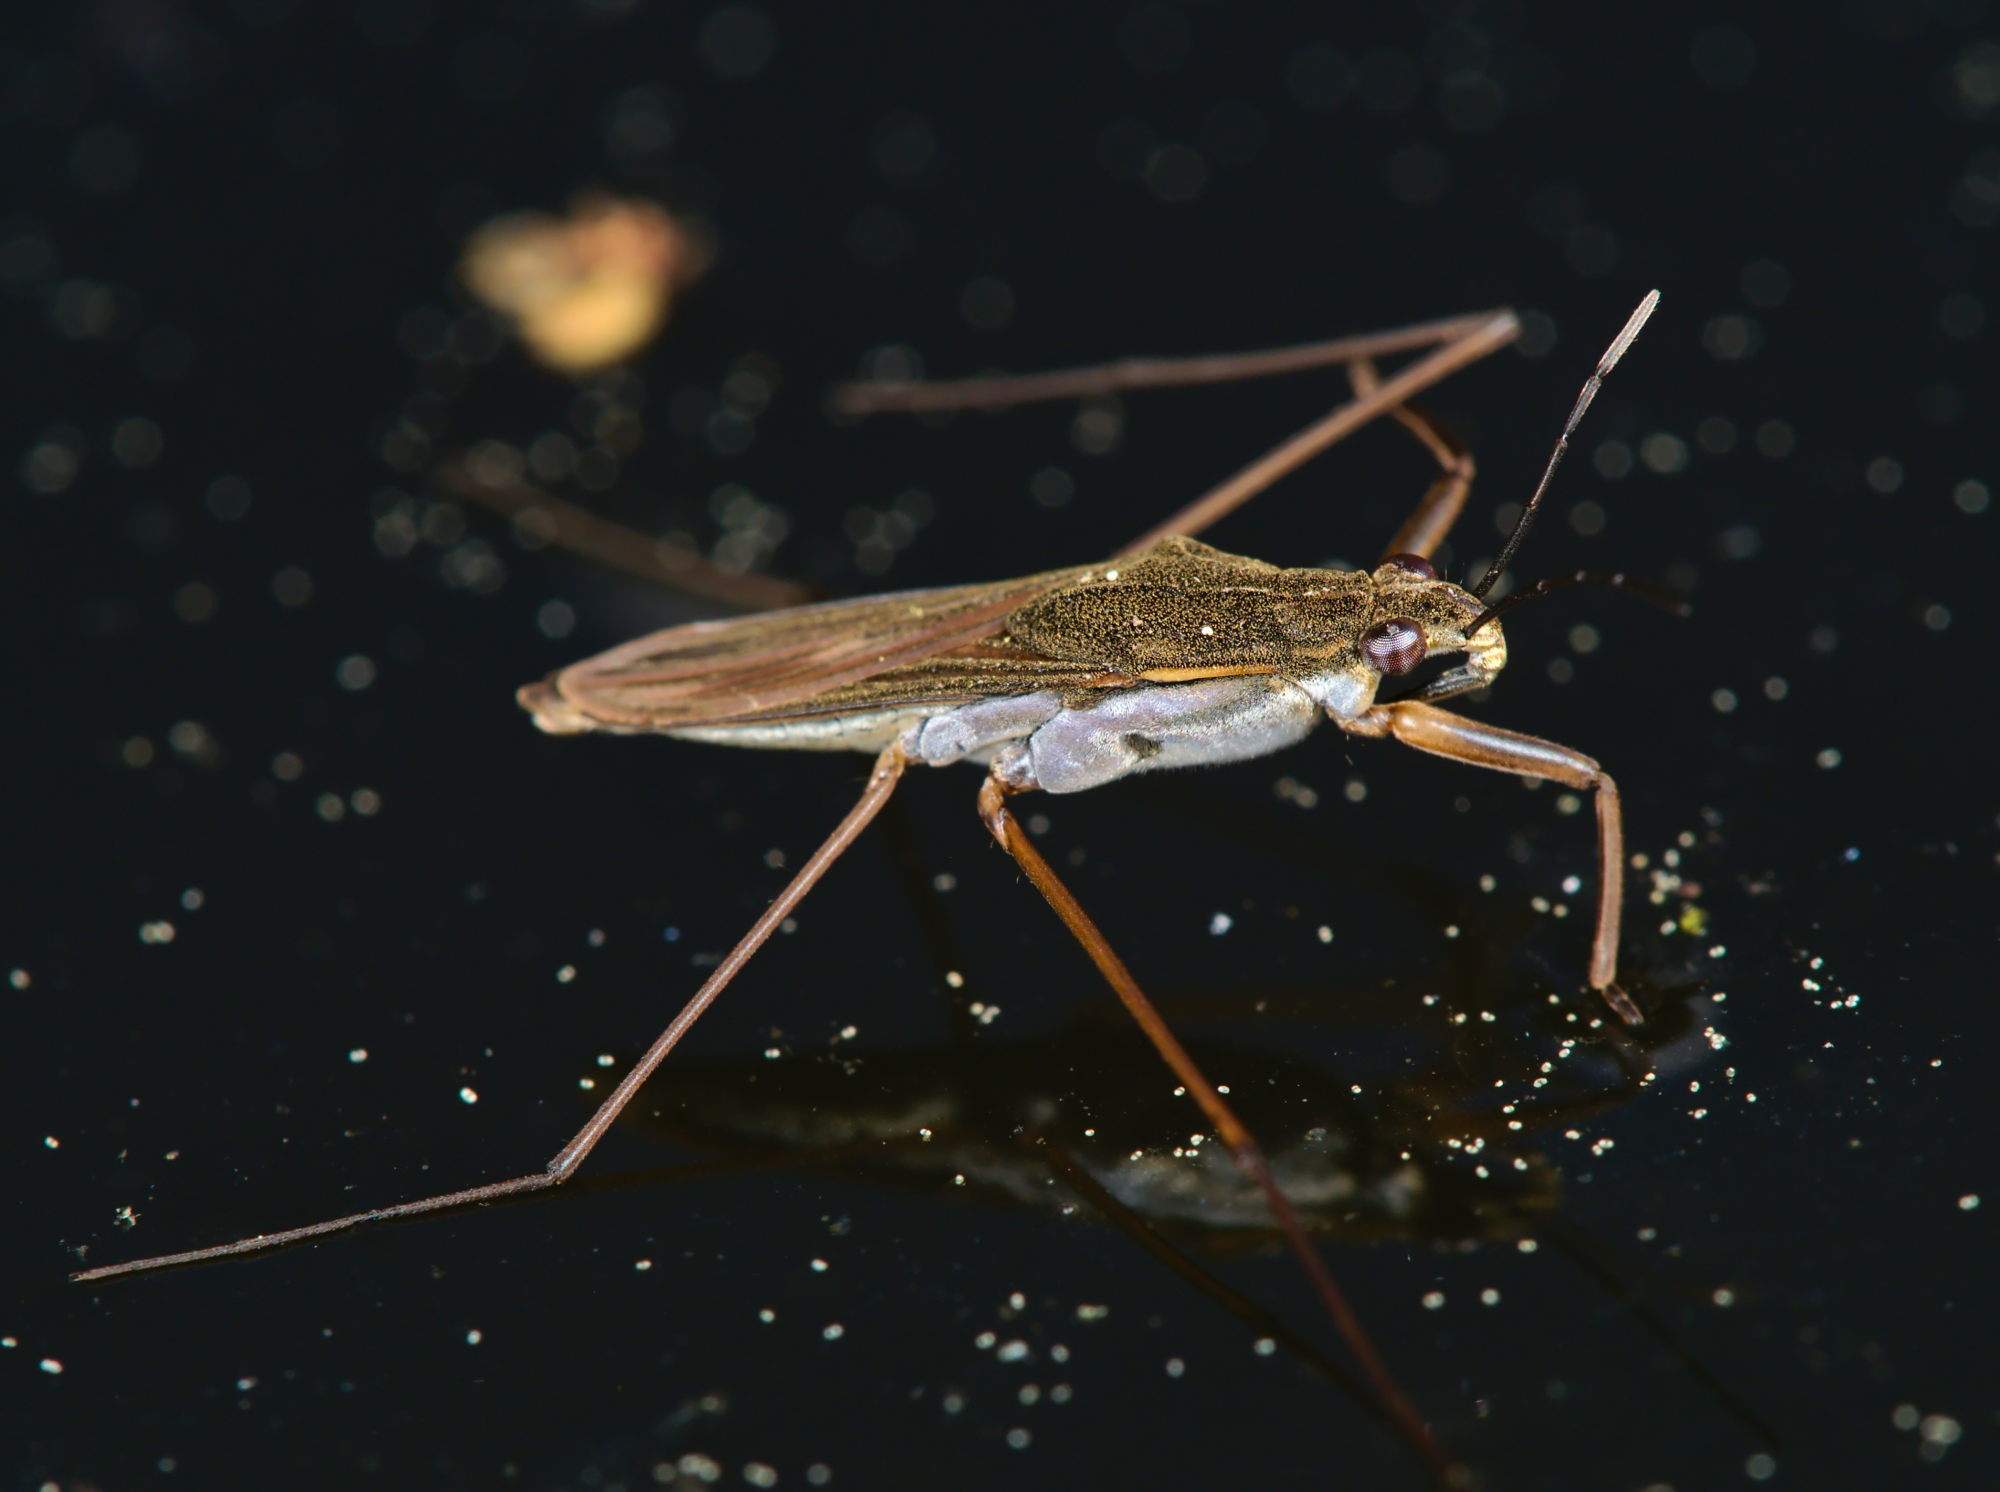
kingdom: Animalia
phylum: Arthropoda
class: Insecta
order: Hemiptera
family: Gerridae
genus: Gerris
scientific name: Gerris
